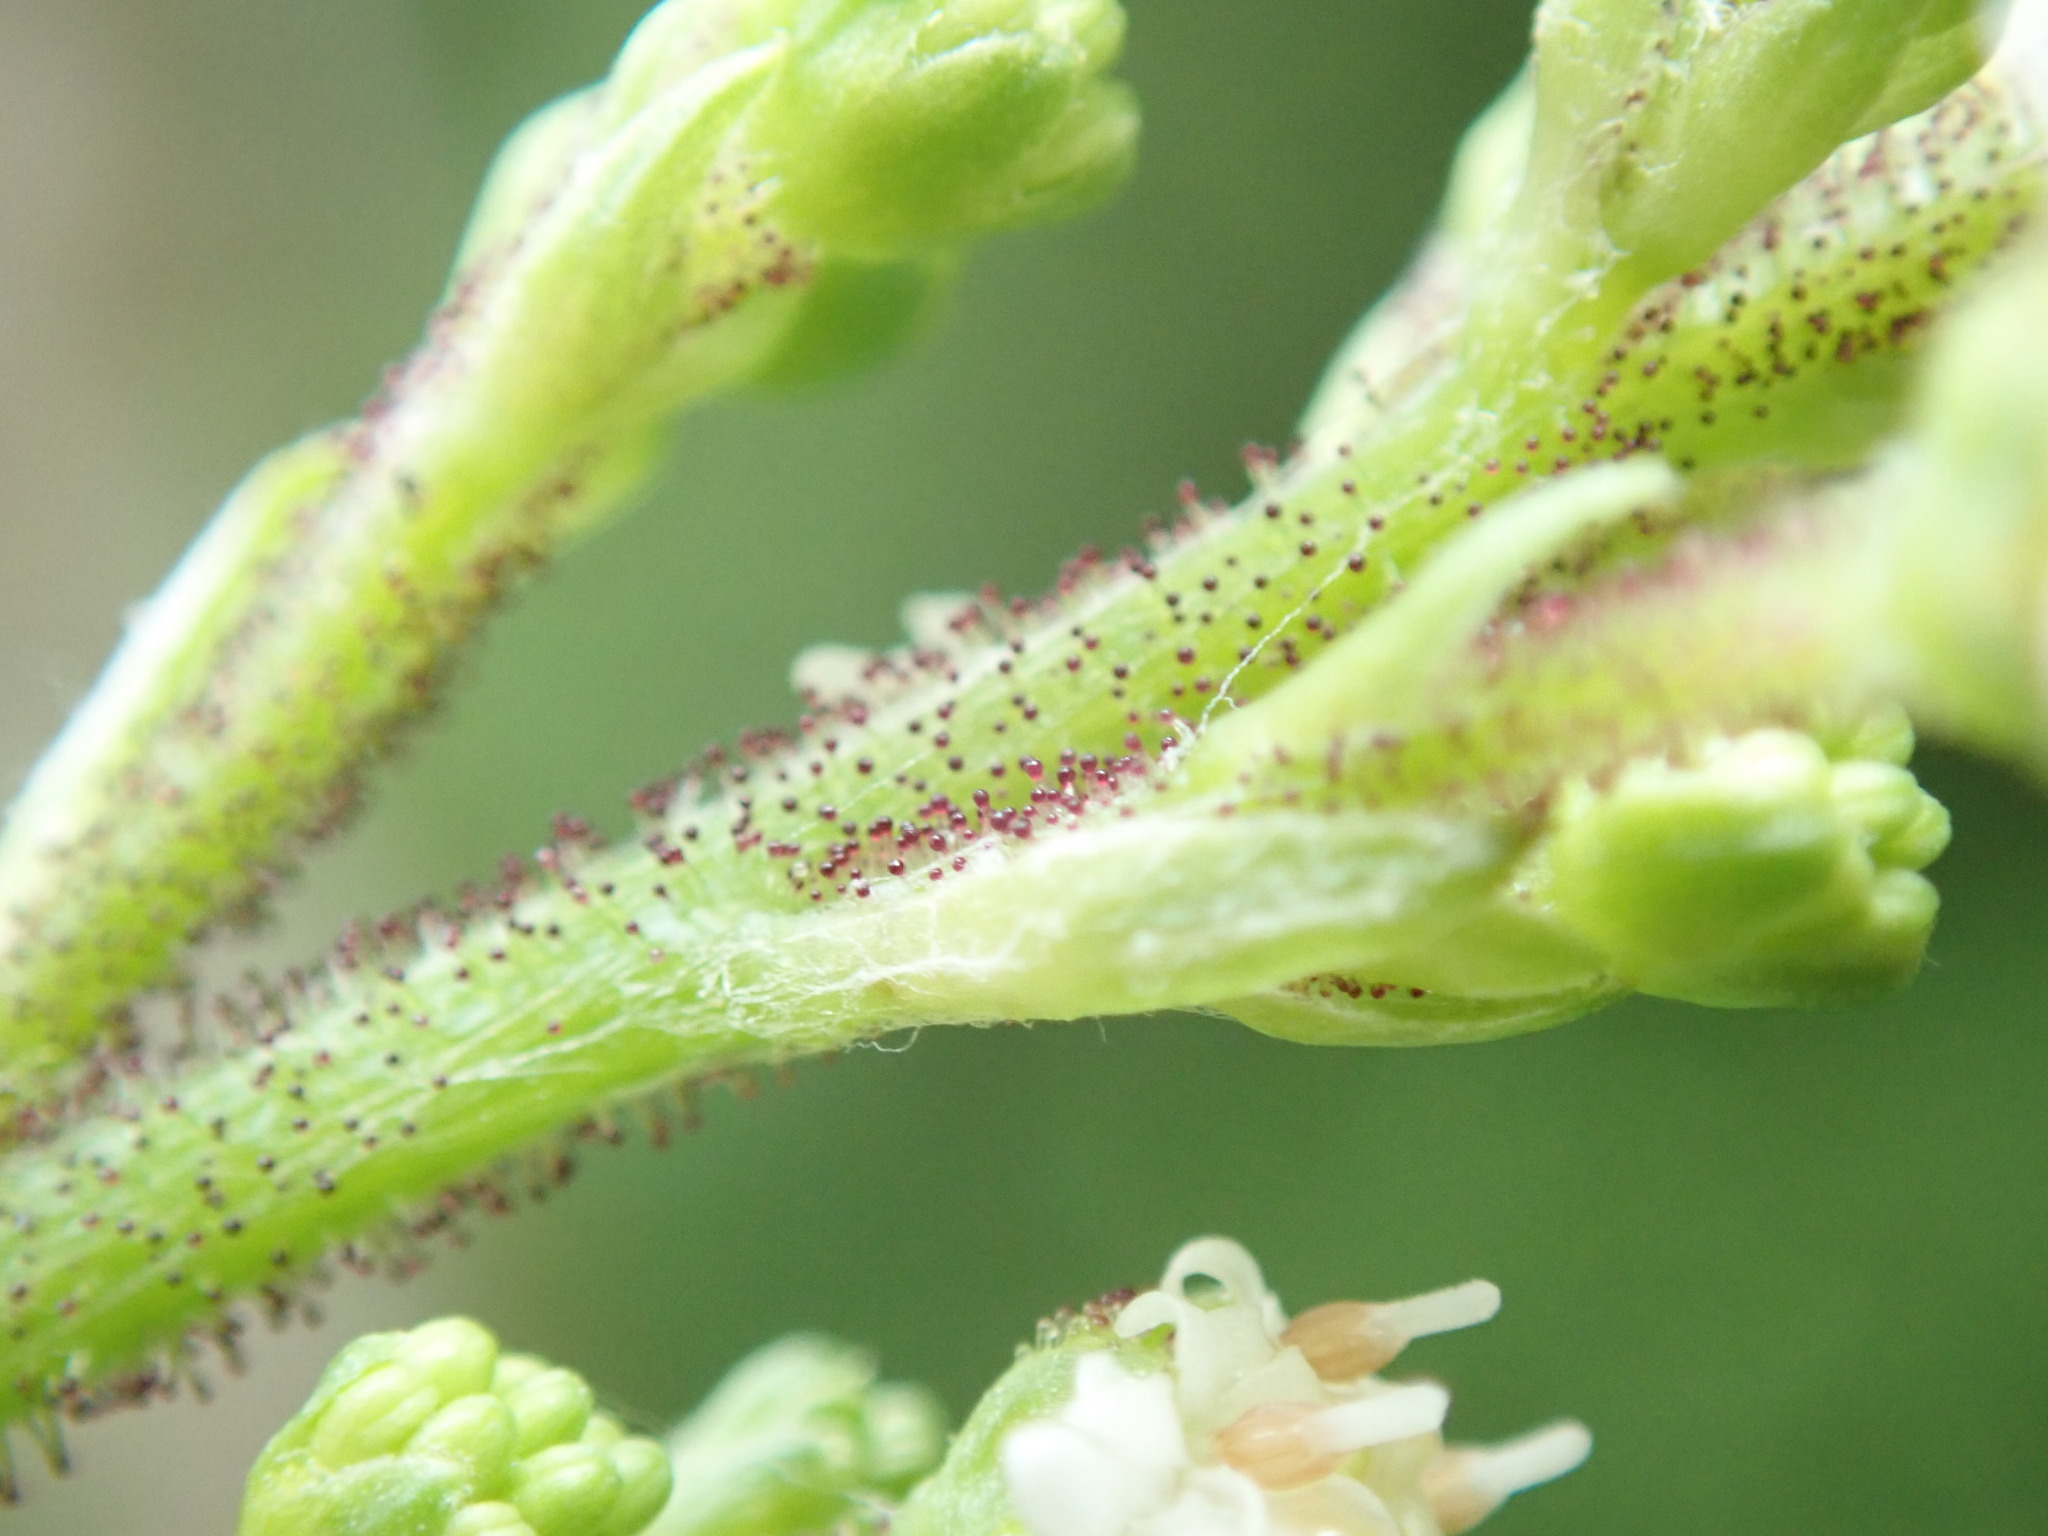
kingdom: Plantae
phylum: Tracheophyta
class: Magnoliopsida
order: Asterales
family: Asteraceae
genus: Adenocaulon
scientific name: Adenocaulon bicolor
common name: Trailplant
